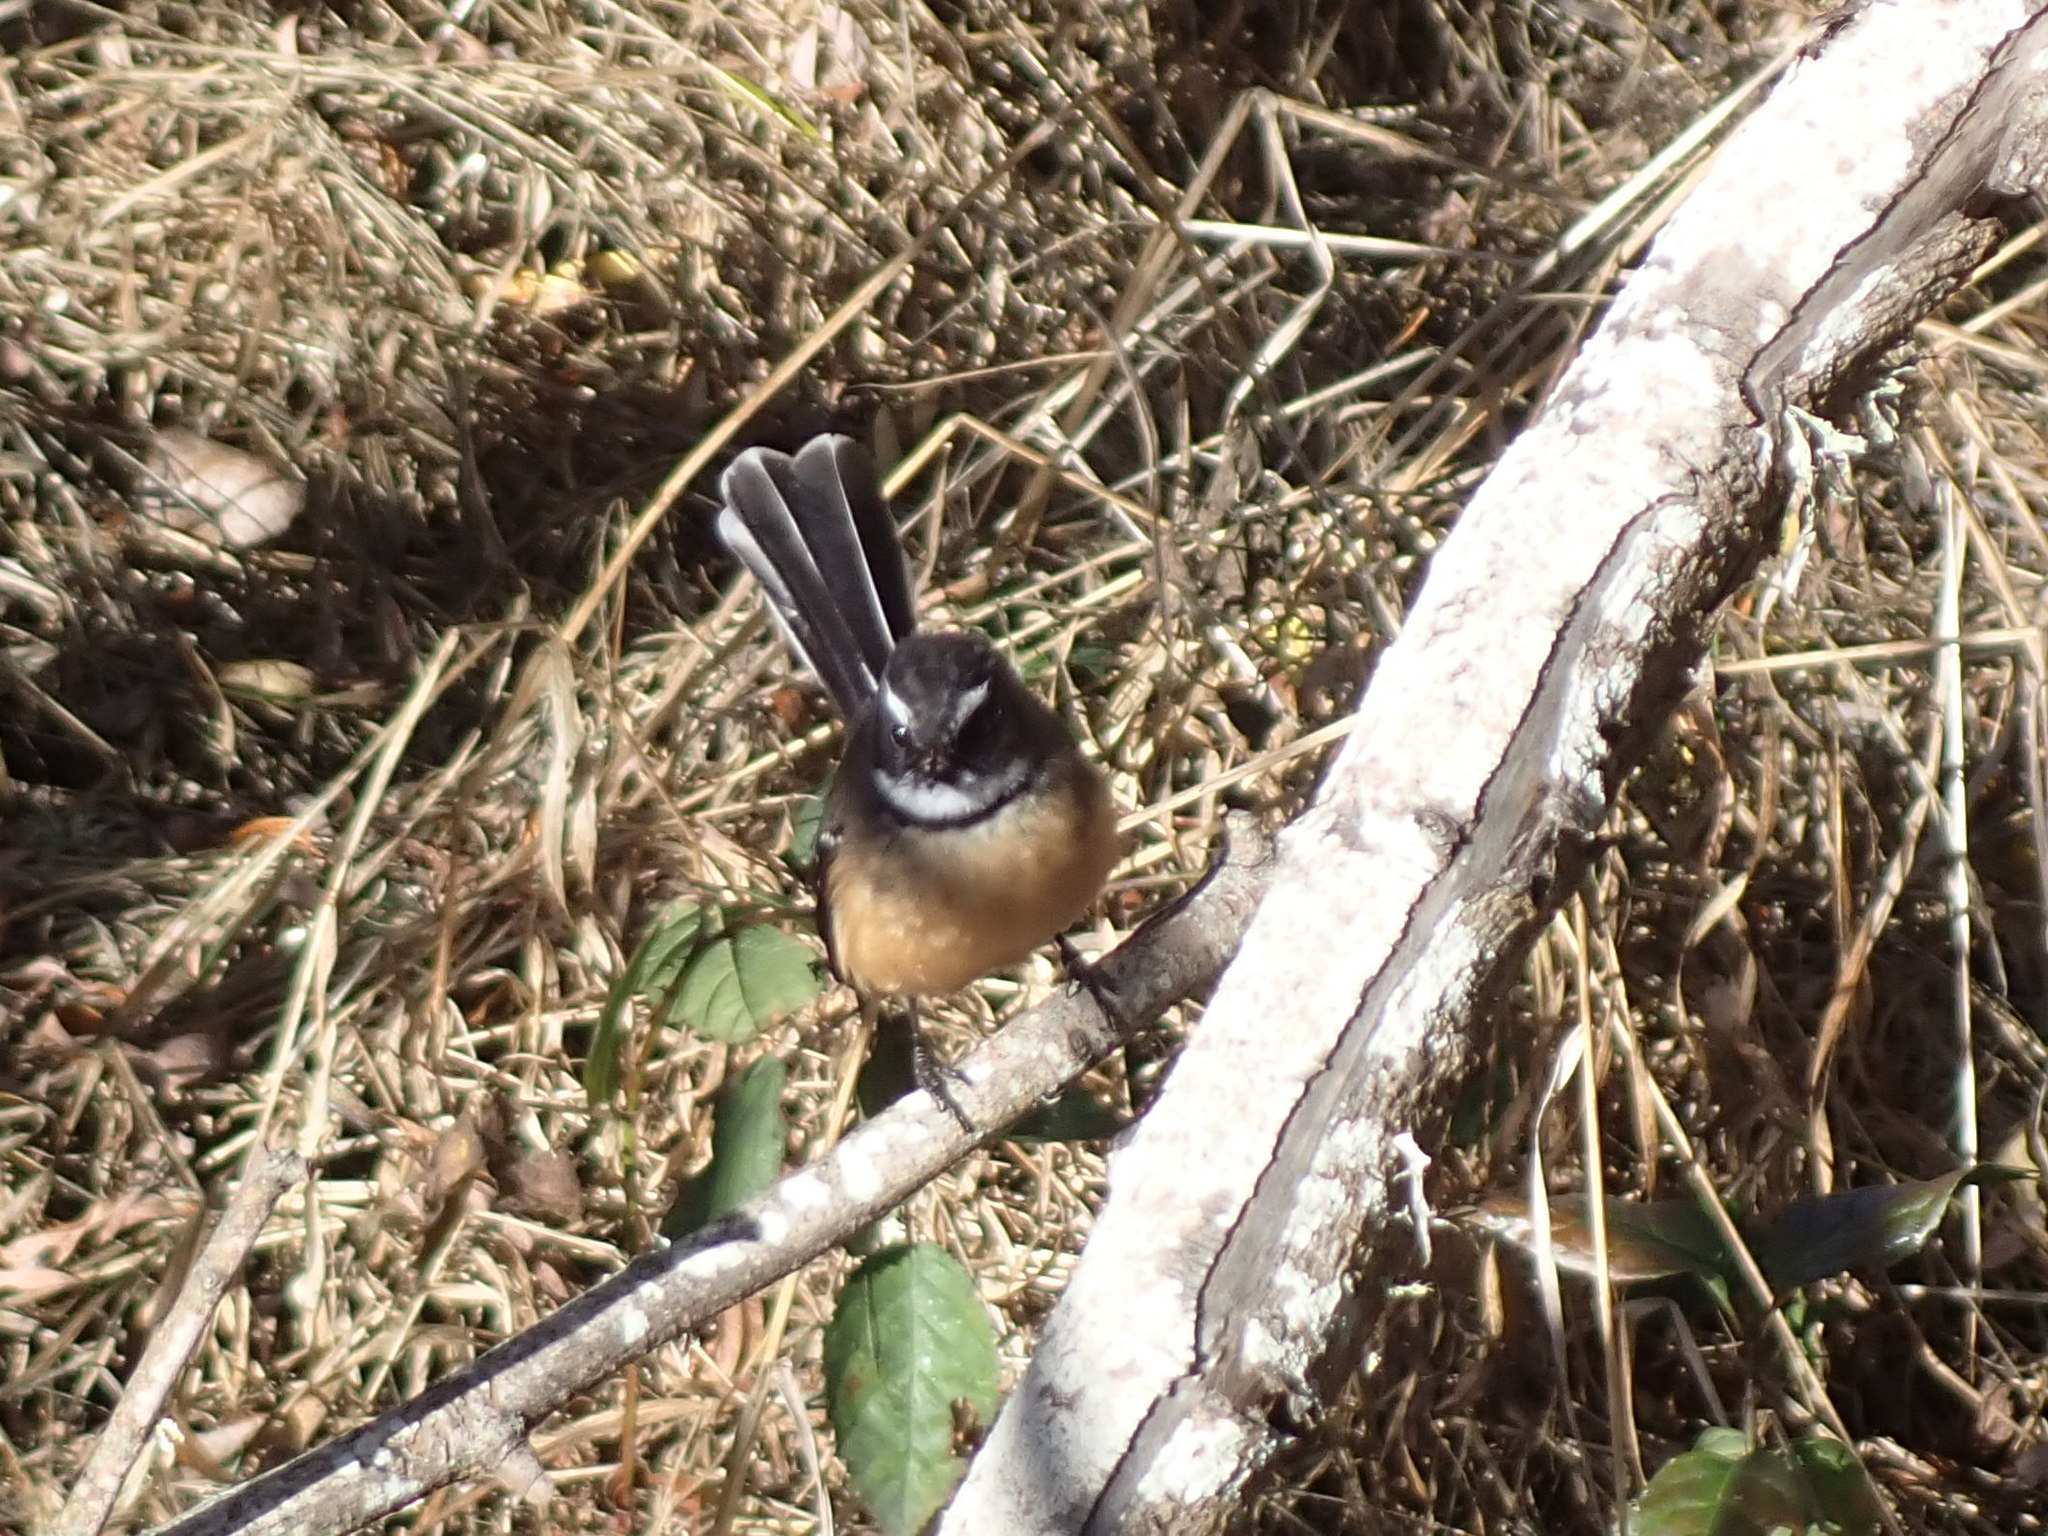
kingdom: Animalia
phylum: Chordata
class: Aves
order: Passeriformes
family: Rhipiduridae
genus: Rhipidura
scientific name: Rhipidura fuliginosa
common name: New zealand fantail
